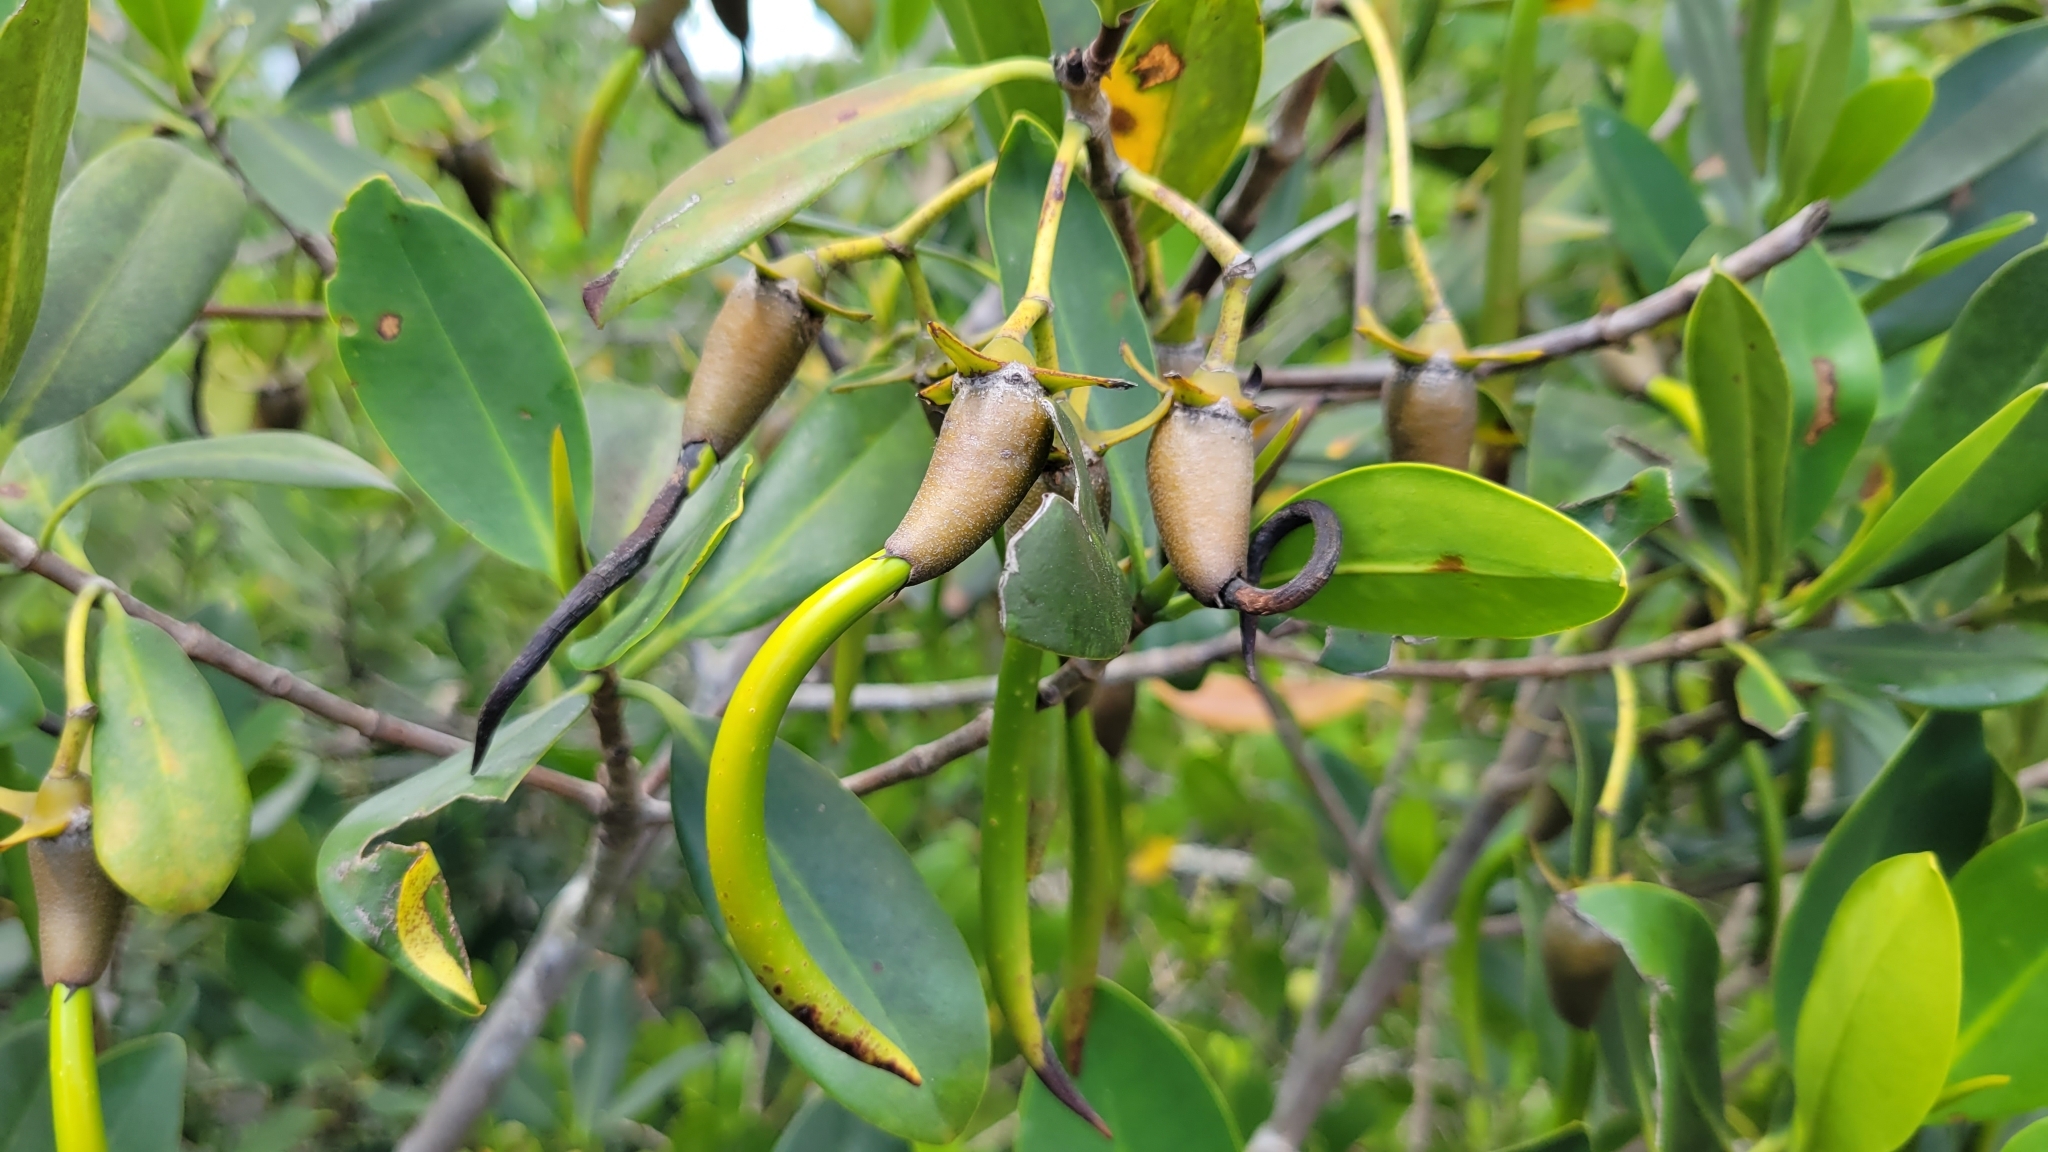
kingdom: Plantae
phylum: Tracheophyta
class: Magnoliopsida
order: Malpighiales
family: Rhizophoraceae
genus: Rhizophora
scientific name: Rhizophora mangle
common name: Red mangrove
